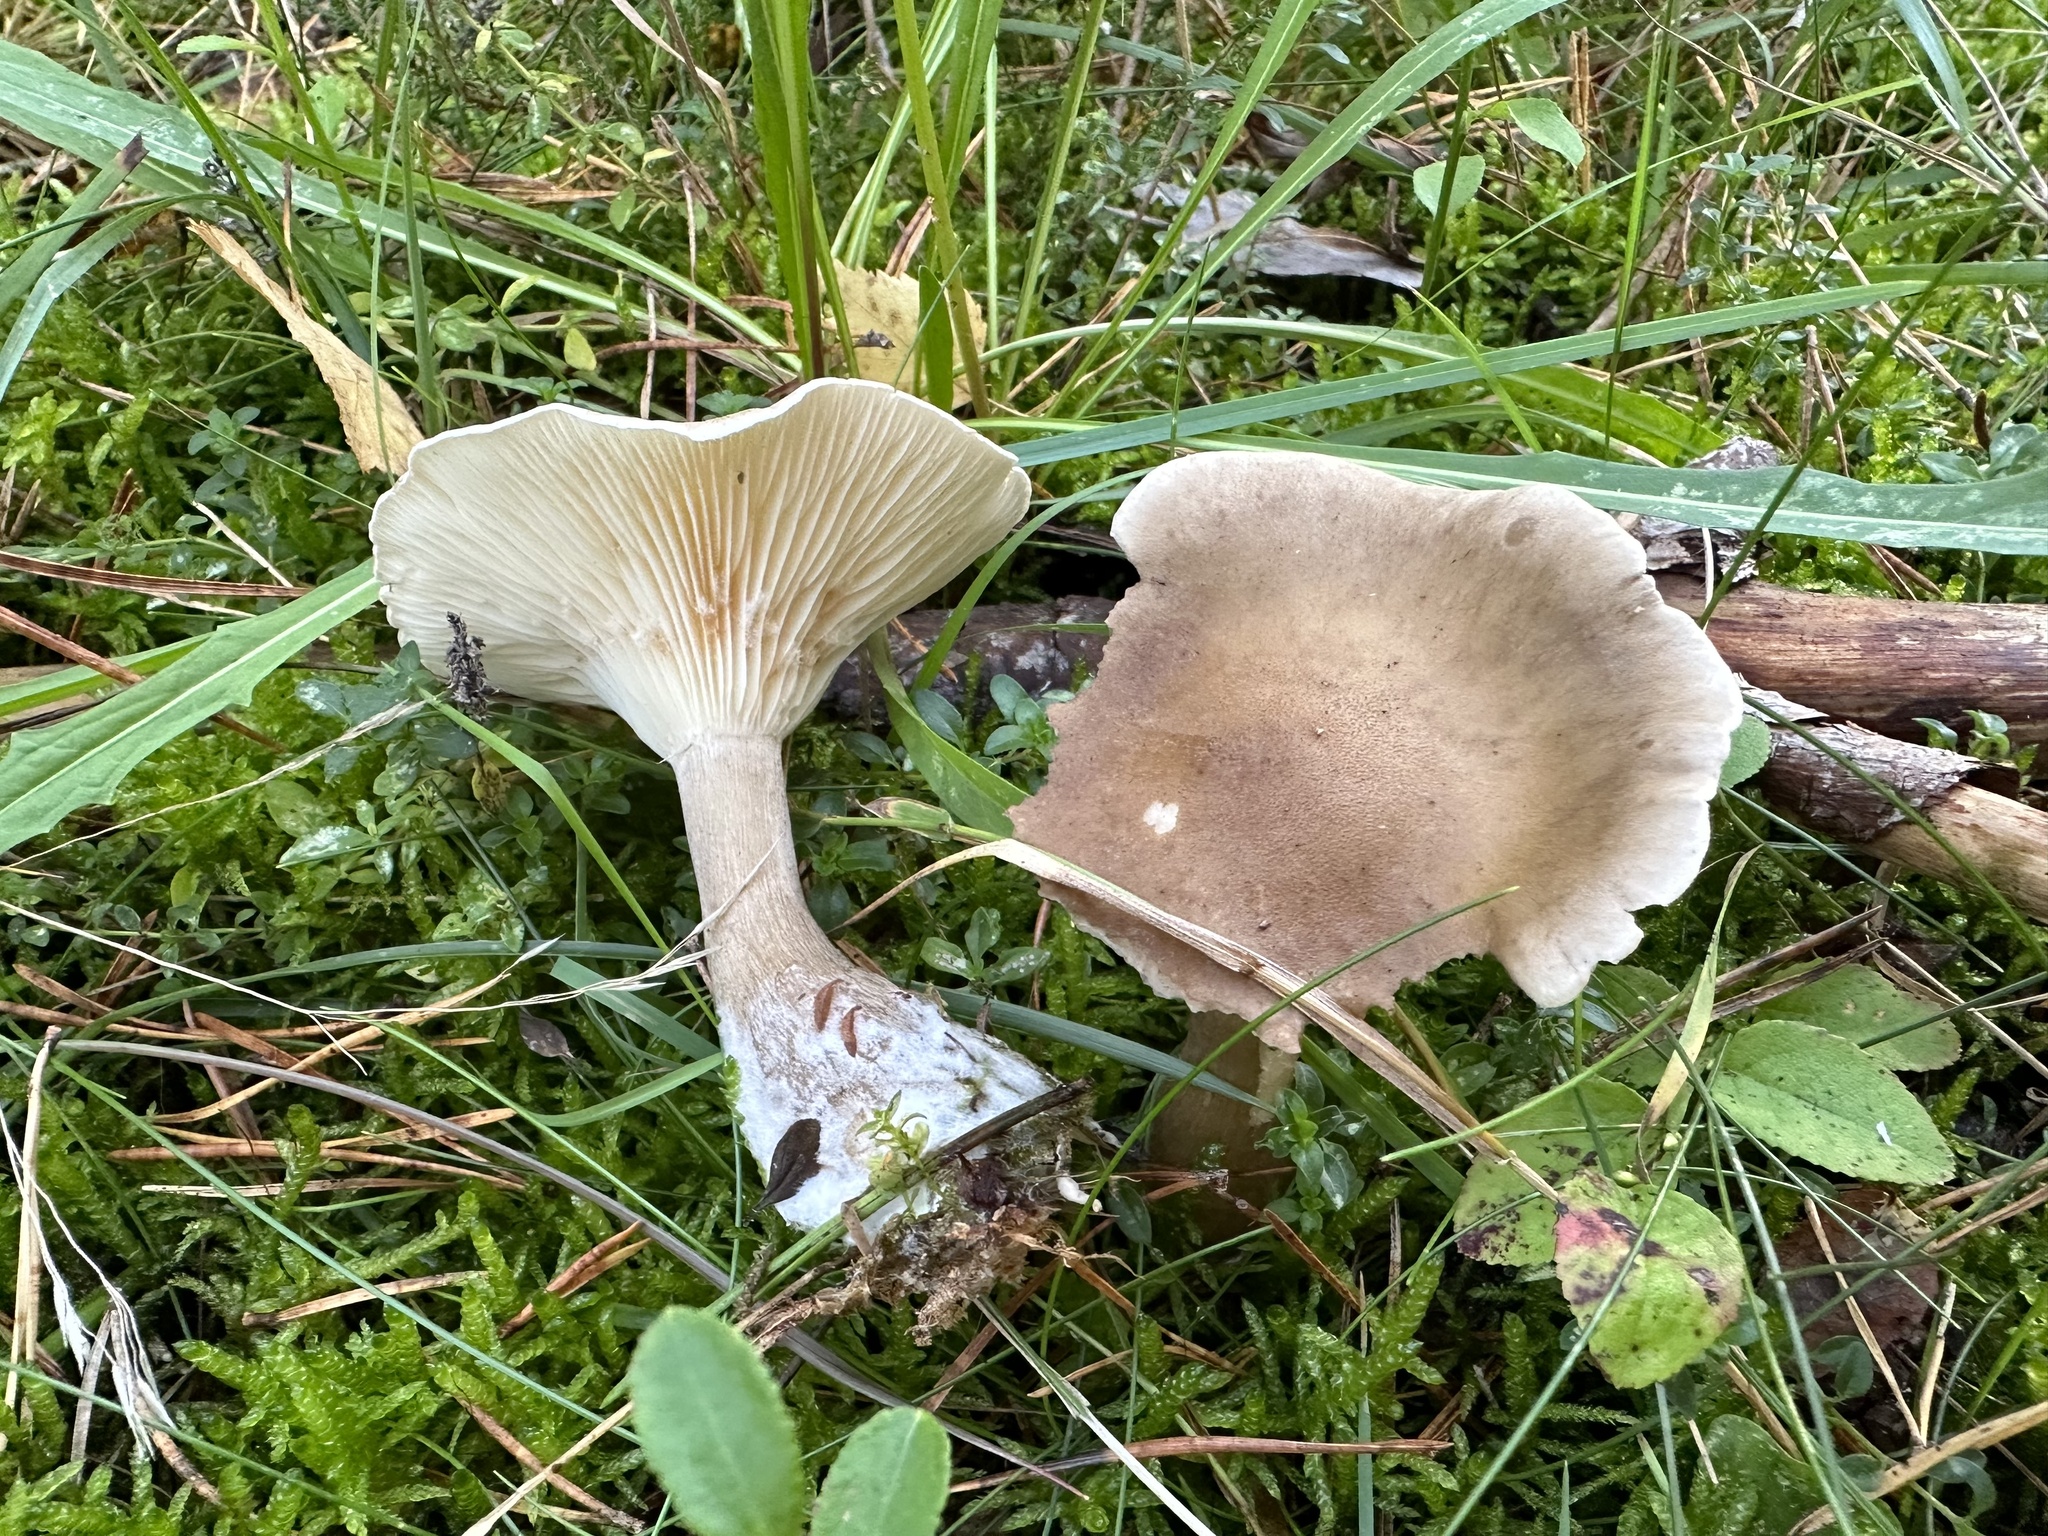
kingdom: Fungi
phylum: Basidiomycota
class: Agaricomycetes
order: Agaricales
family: Hygrophoraceae
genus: Ampulloclitocybe
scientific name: Ampulloclitocybe clavipes
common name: Club foot
